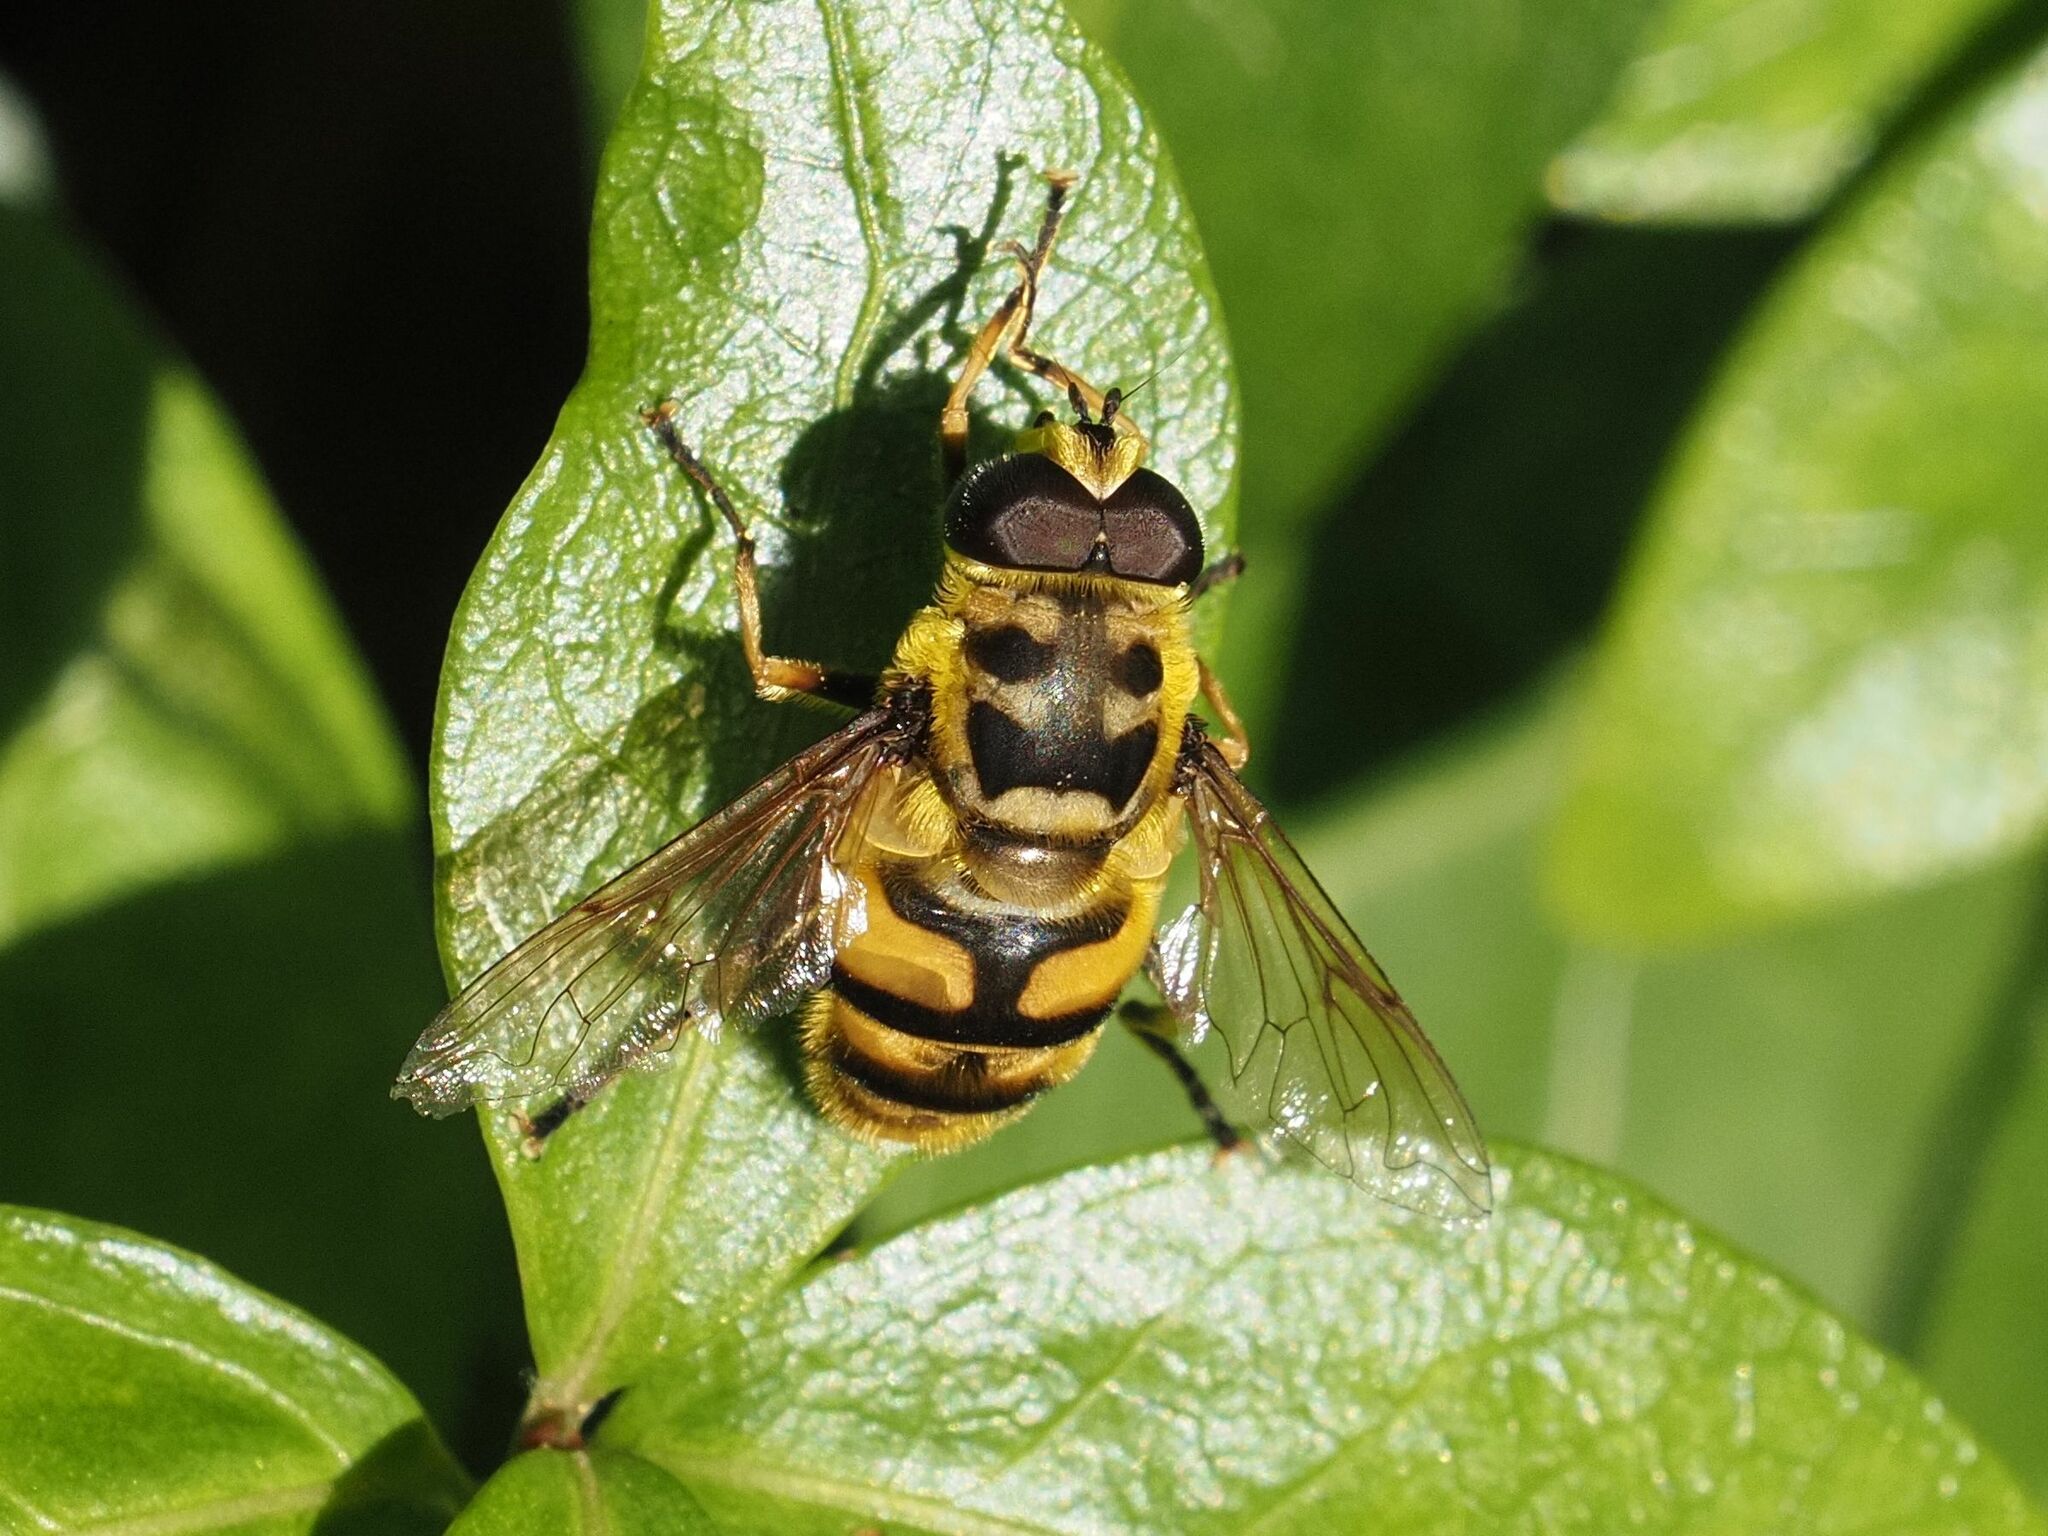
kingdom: Animalia
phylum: Arthropoda
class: Insecta
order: Diptera
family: Syrphidae
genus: Myathropa
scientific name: Myathropa florea
